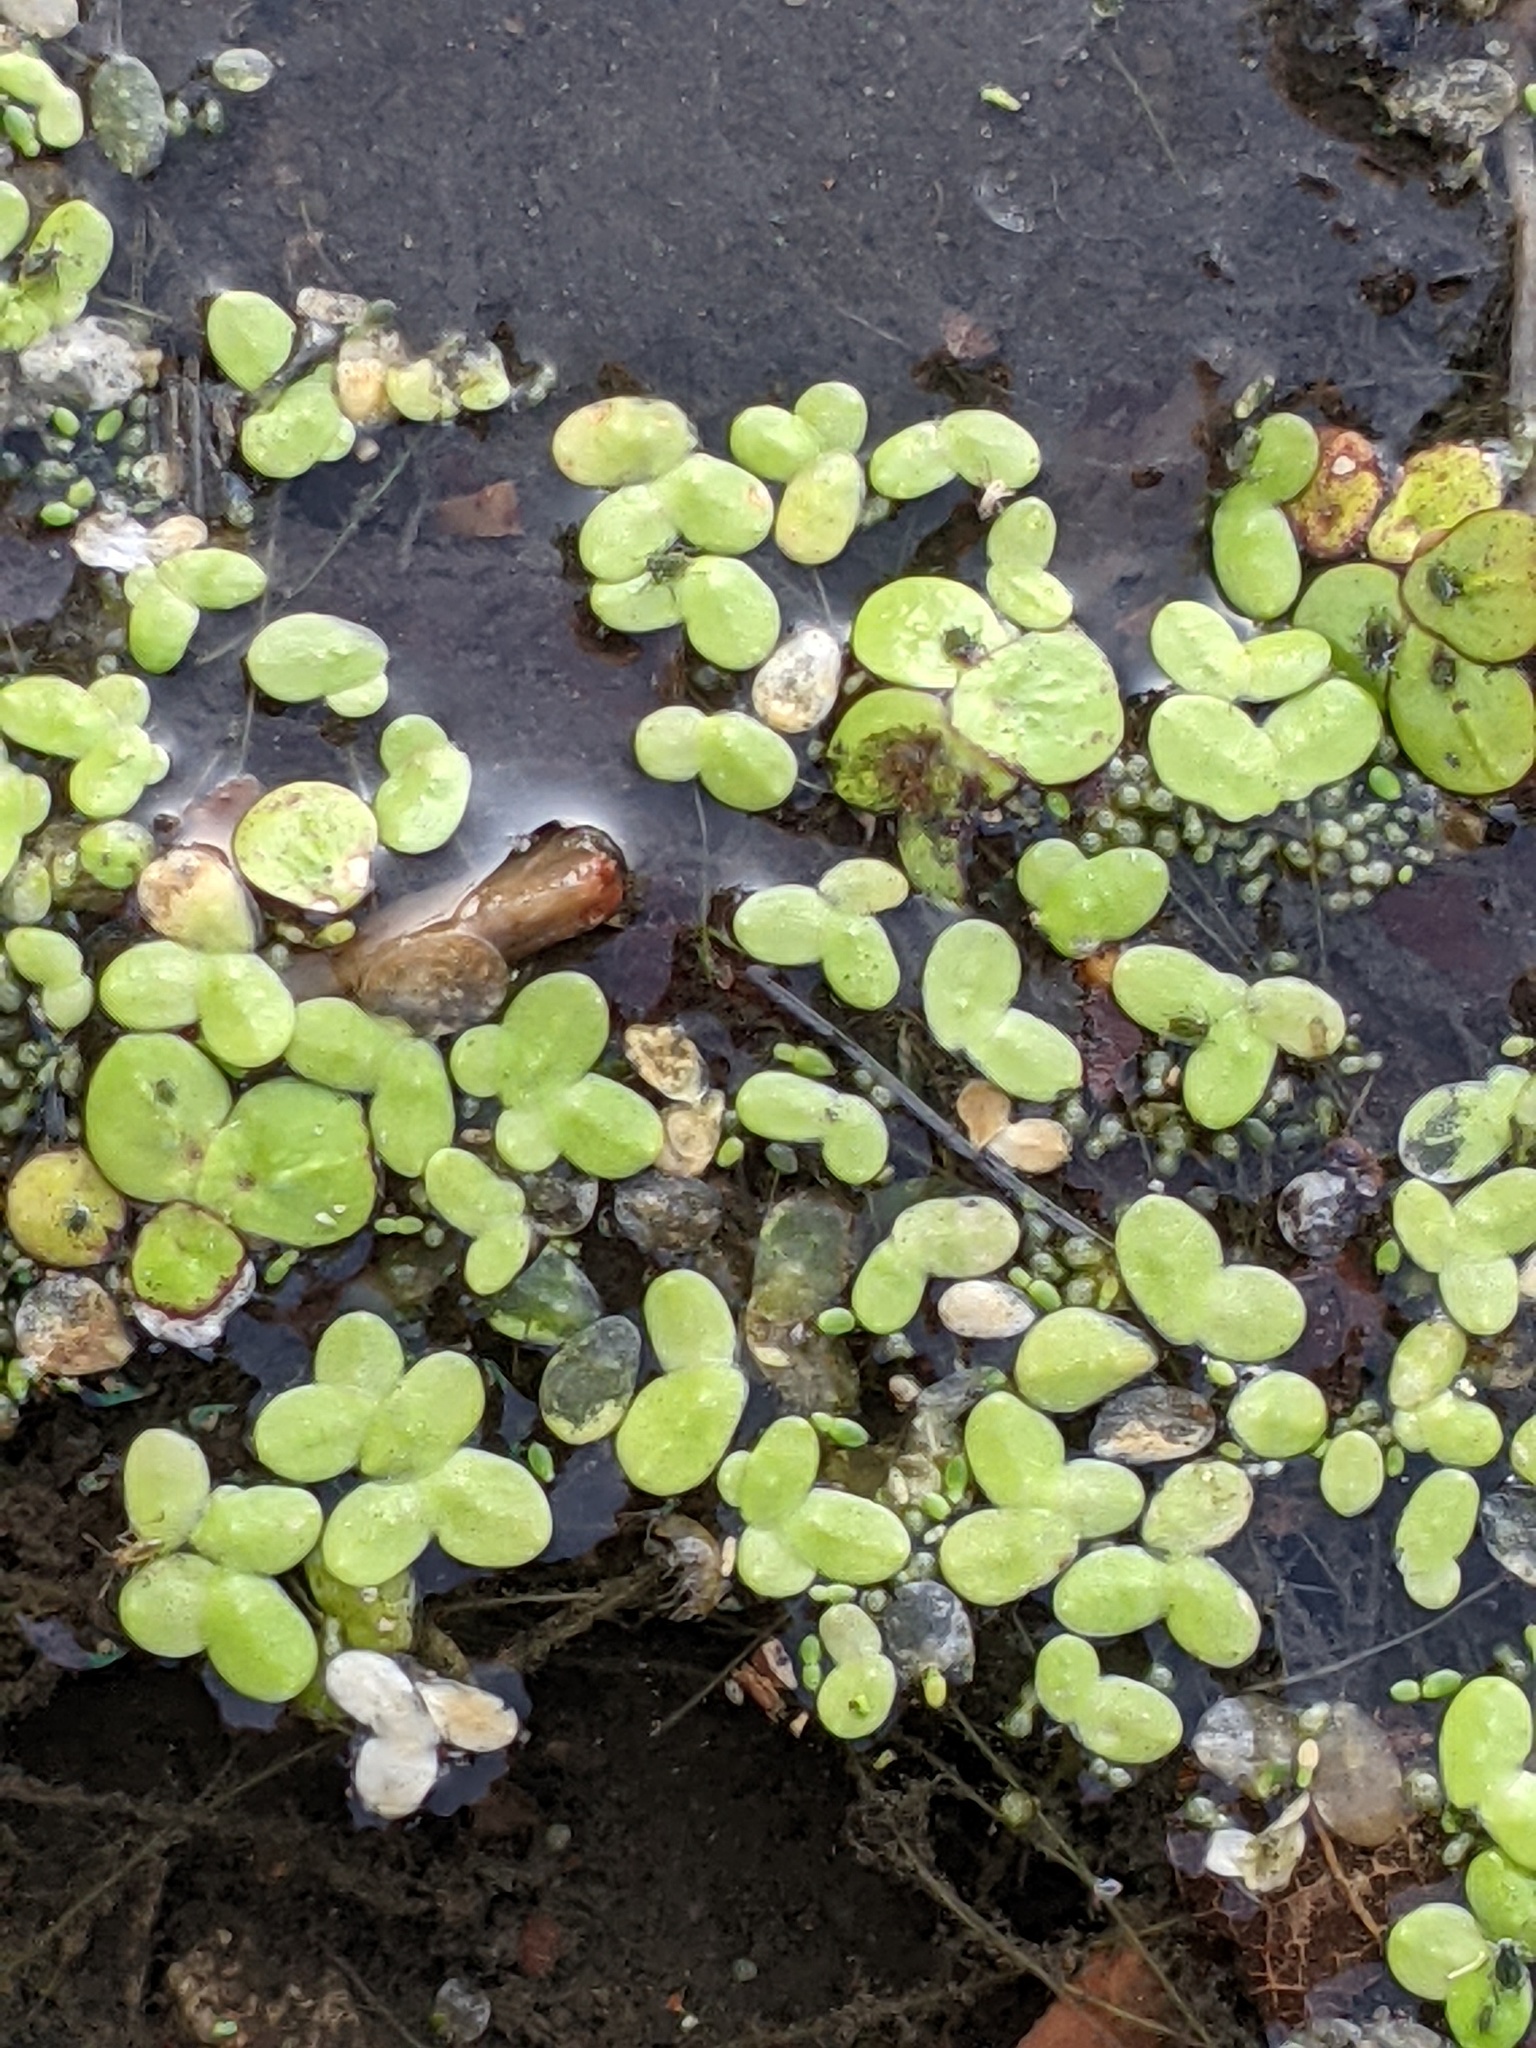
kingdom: Plantae
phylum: Tracheophyta
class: Liliopsida
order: Alismatales
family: Araceae
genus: Spirodela
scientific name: Spirodela polyrhiza
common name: Great duckweed
